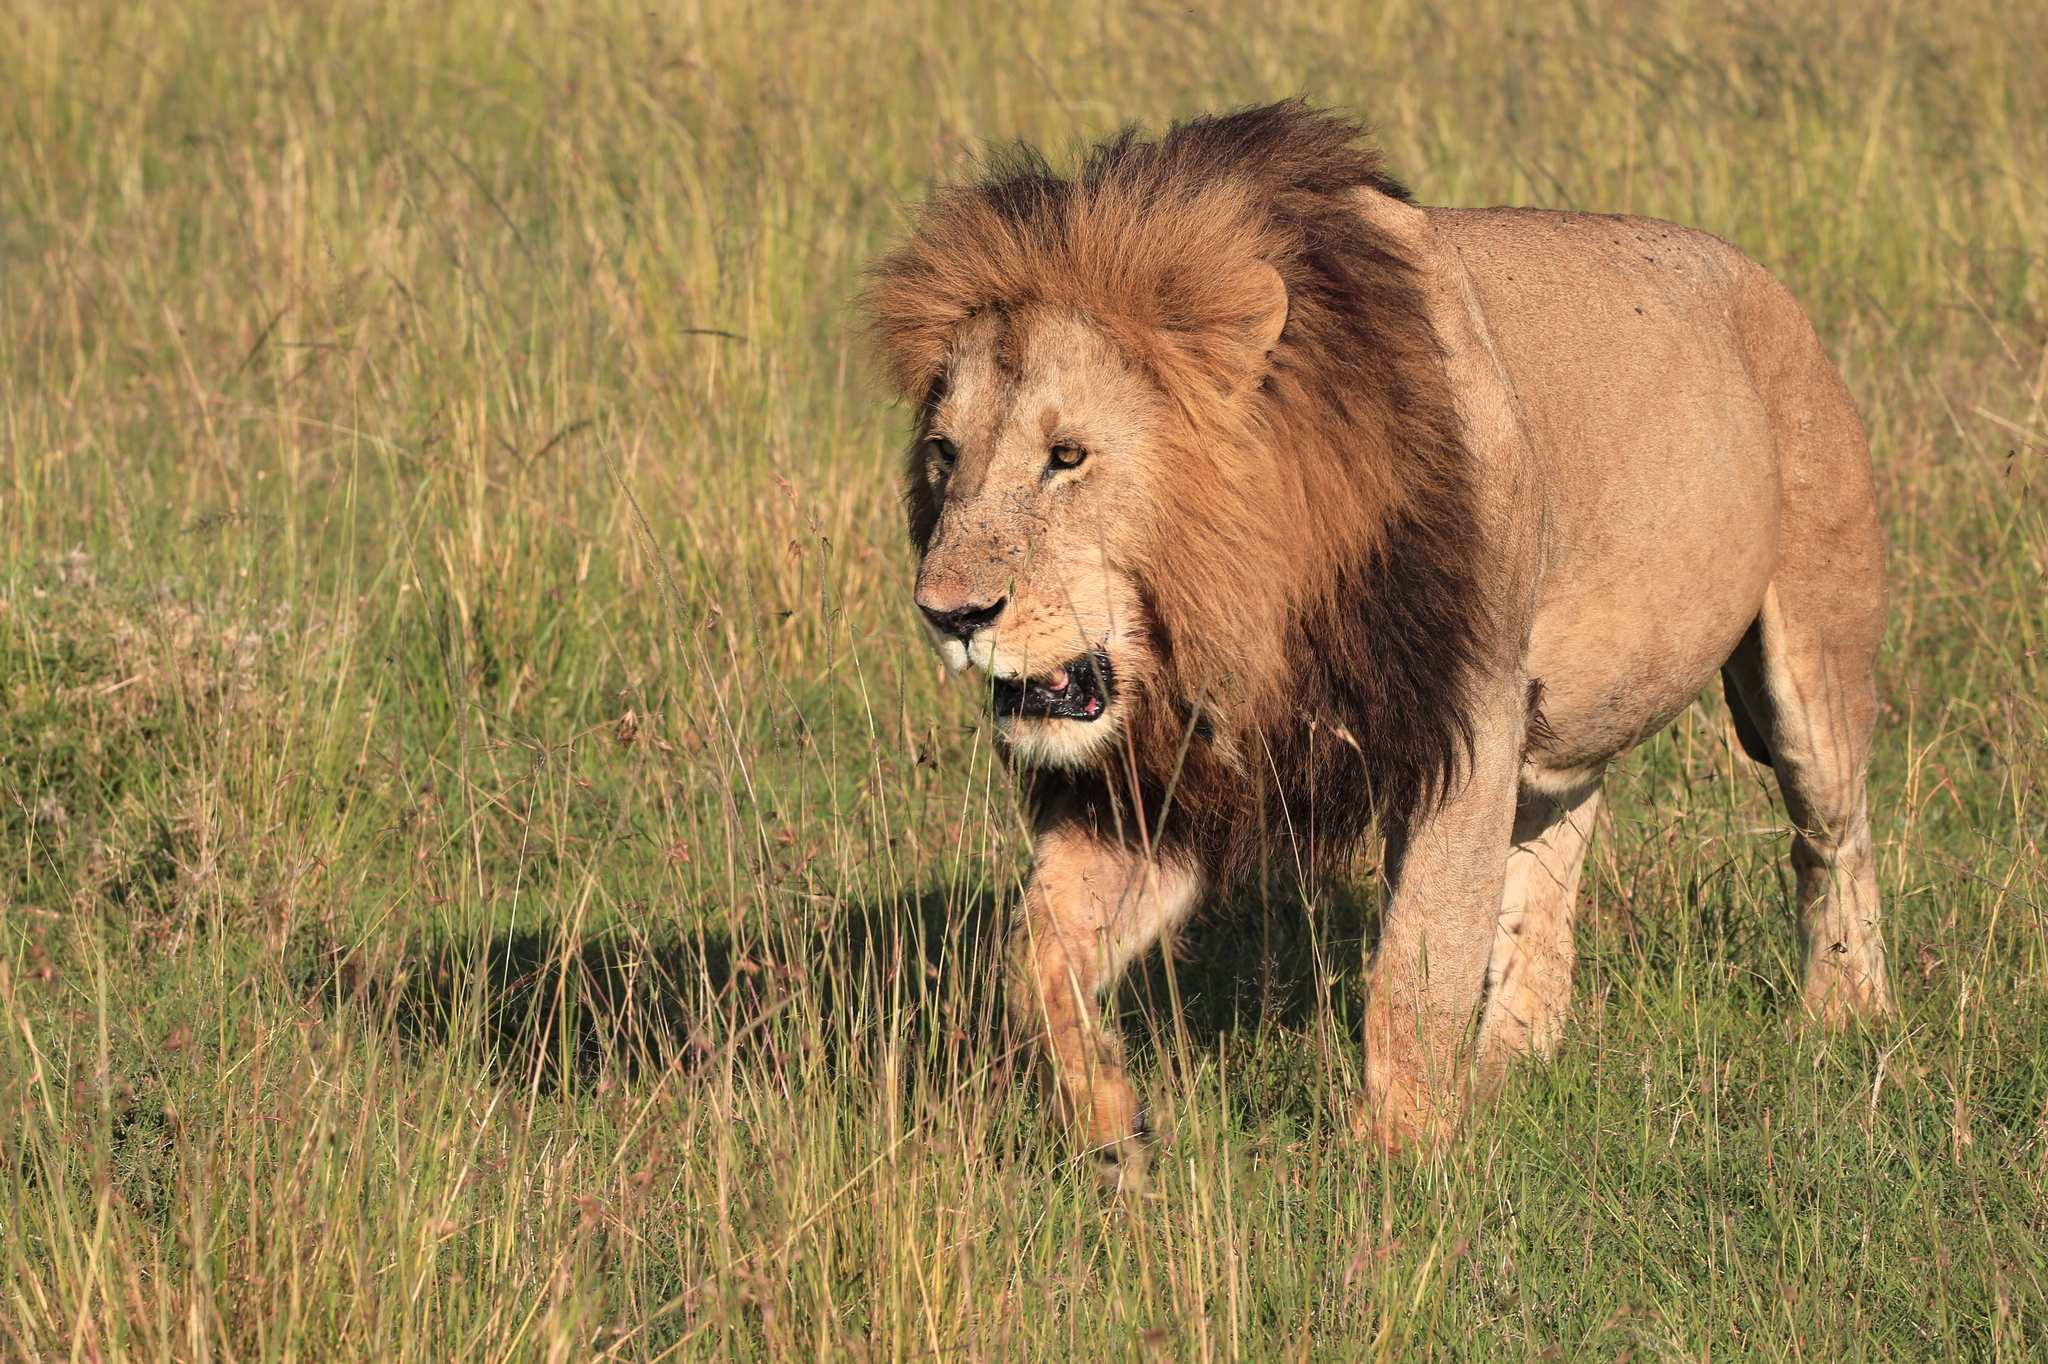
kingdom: Animalia
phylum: Chordata
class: Mammalia
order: Carnivora
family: Felidae
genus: Panthera
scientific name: Panthera leo
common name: Lion
